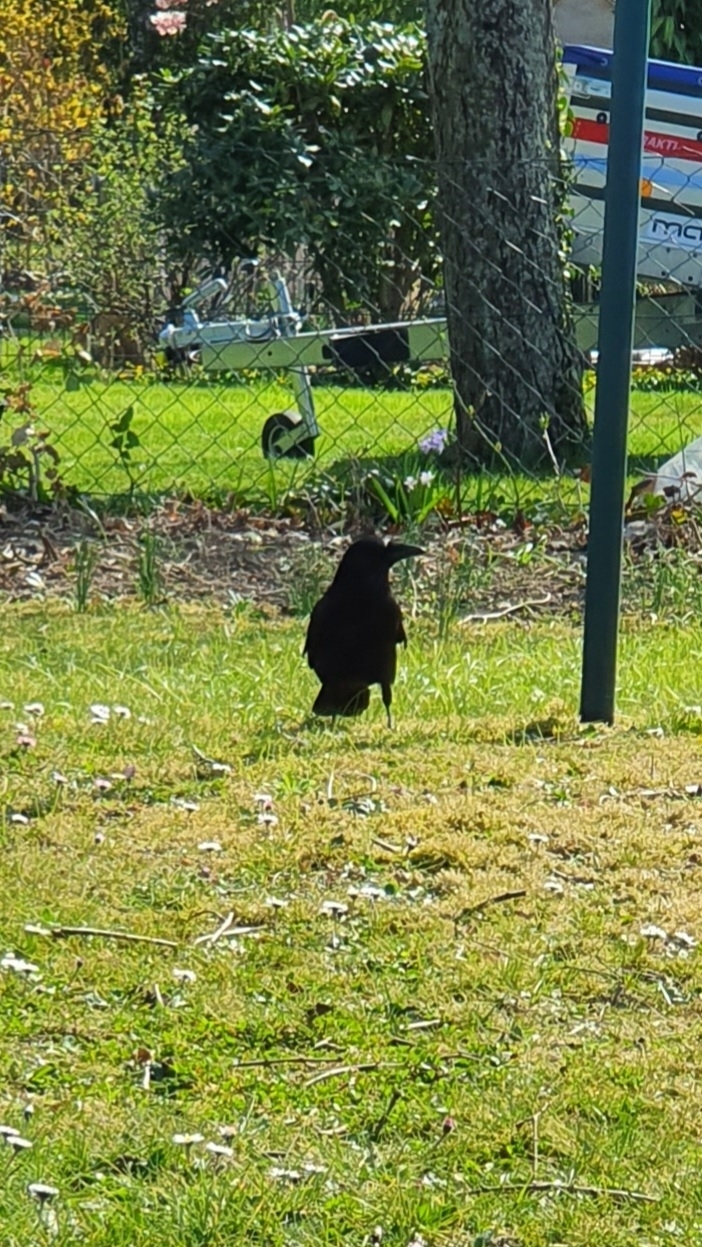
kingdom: Animalia
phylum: Chordata
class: Aves
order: Passeriformes
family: Corvidae
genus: Corvus
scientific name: Corvus corone
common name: Carrion crow
